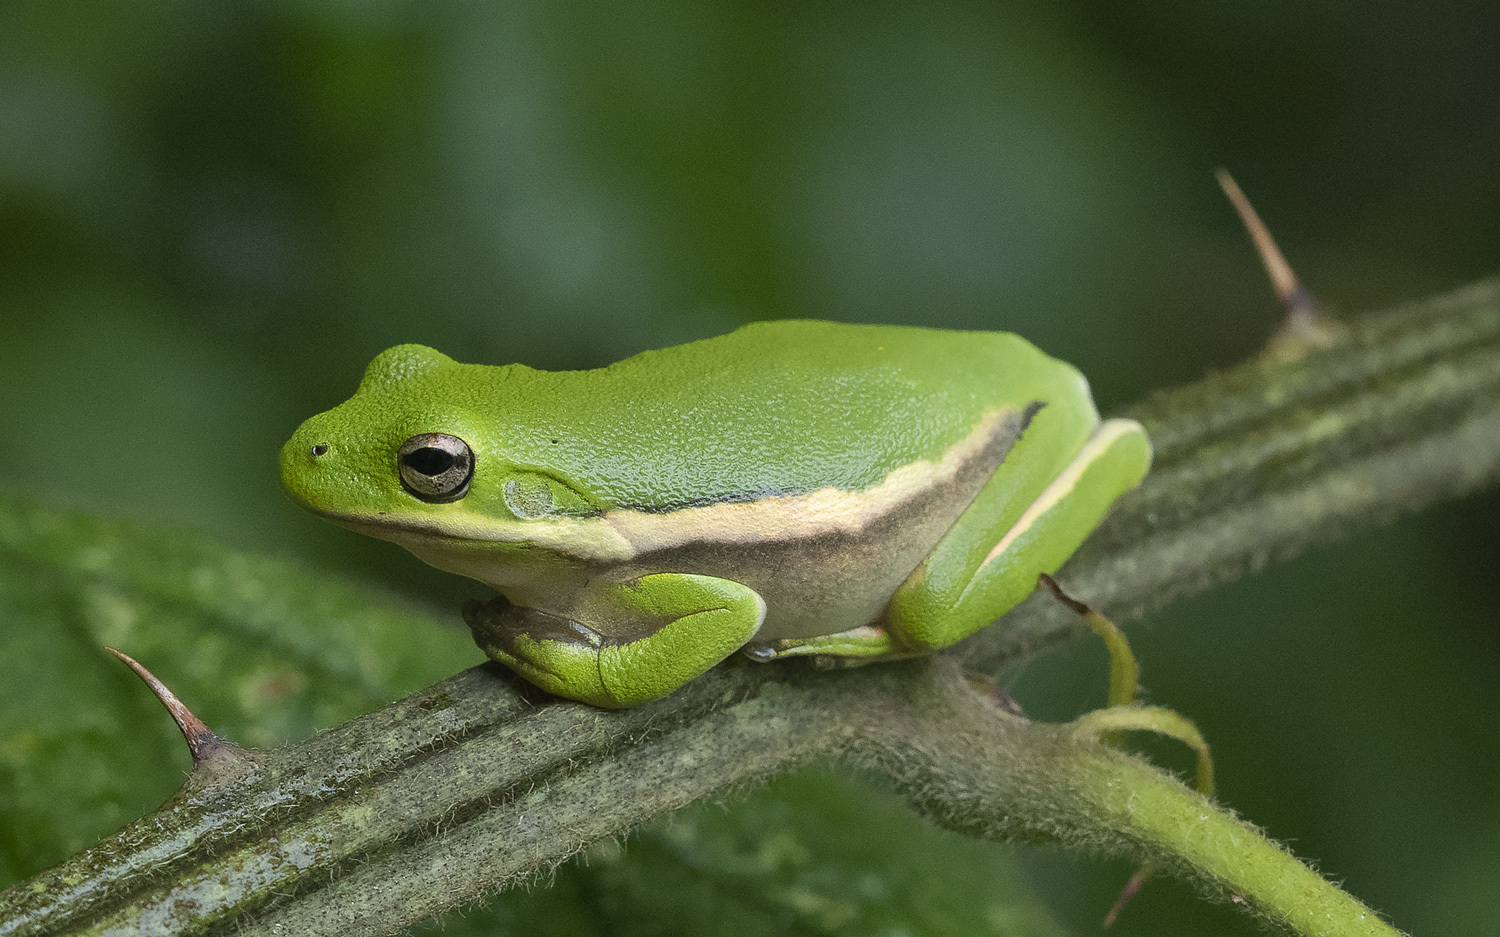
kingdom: Animalia
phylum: Chordata
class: Amphibia
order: Anura
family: Hylidae
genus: Dryophytes
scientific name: Dryophytes cinereus
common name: Green treefrog
